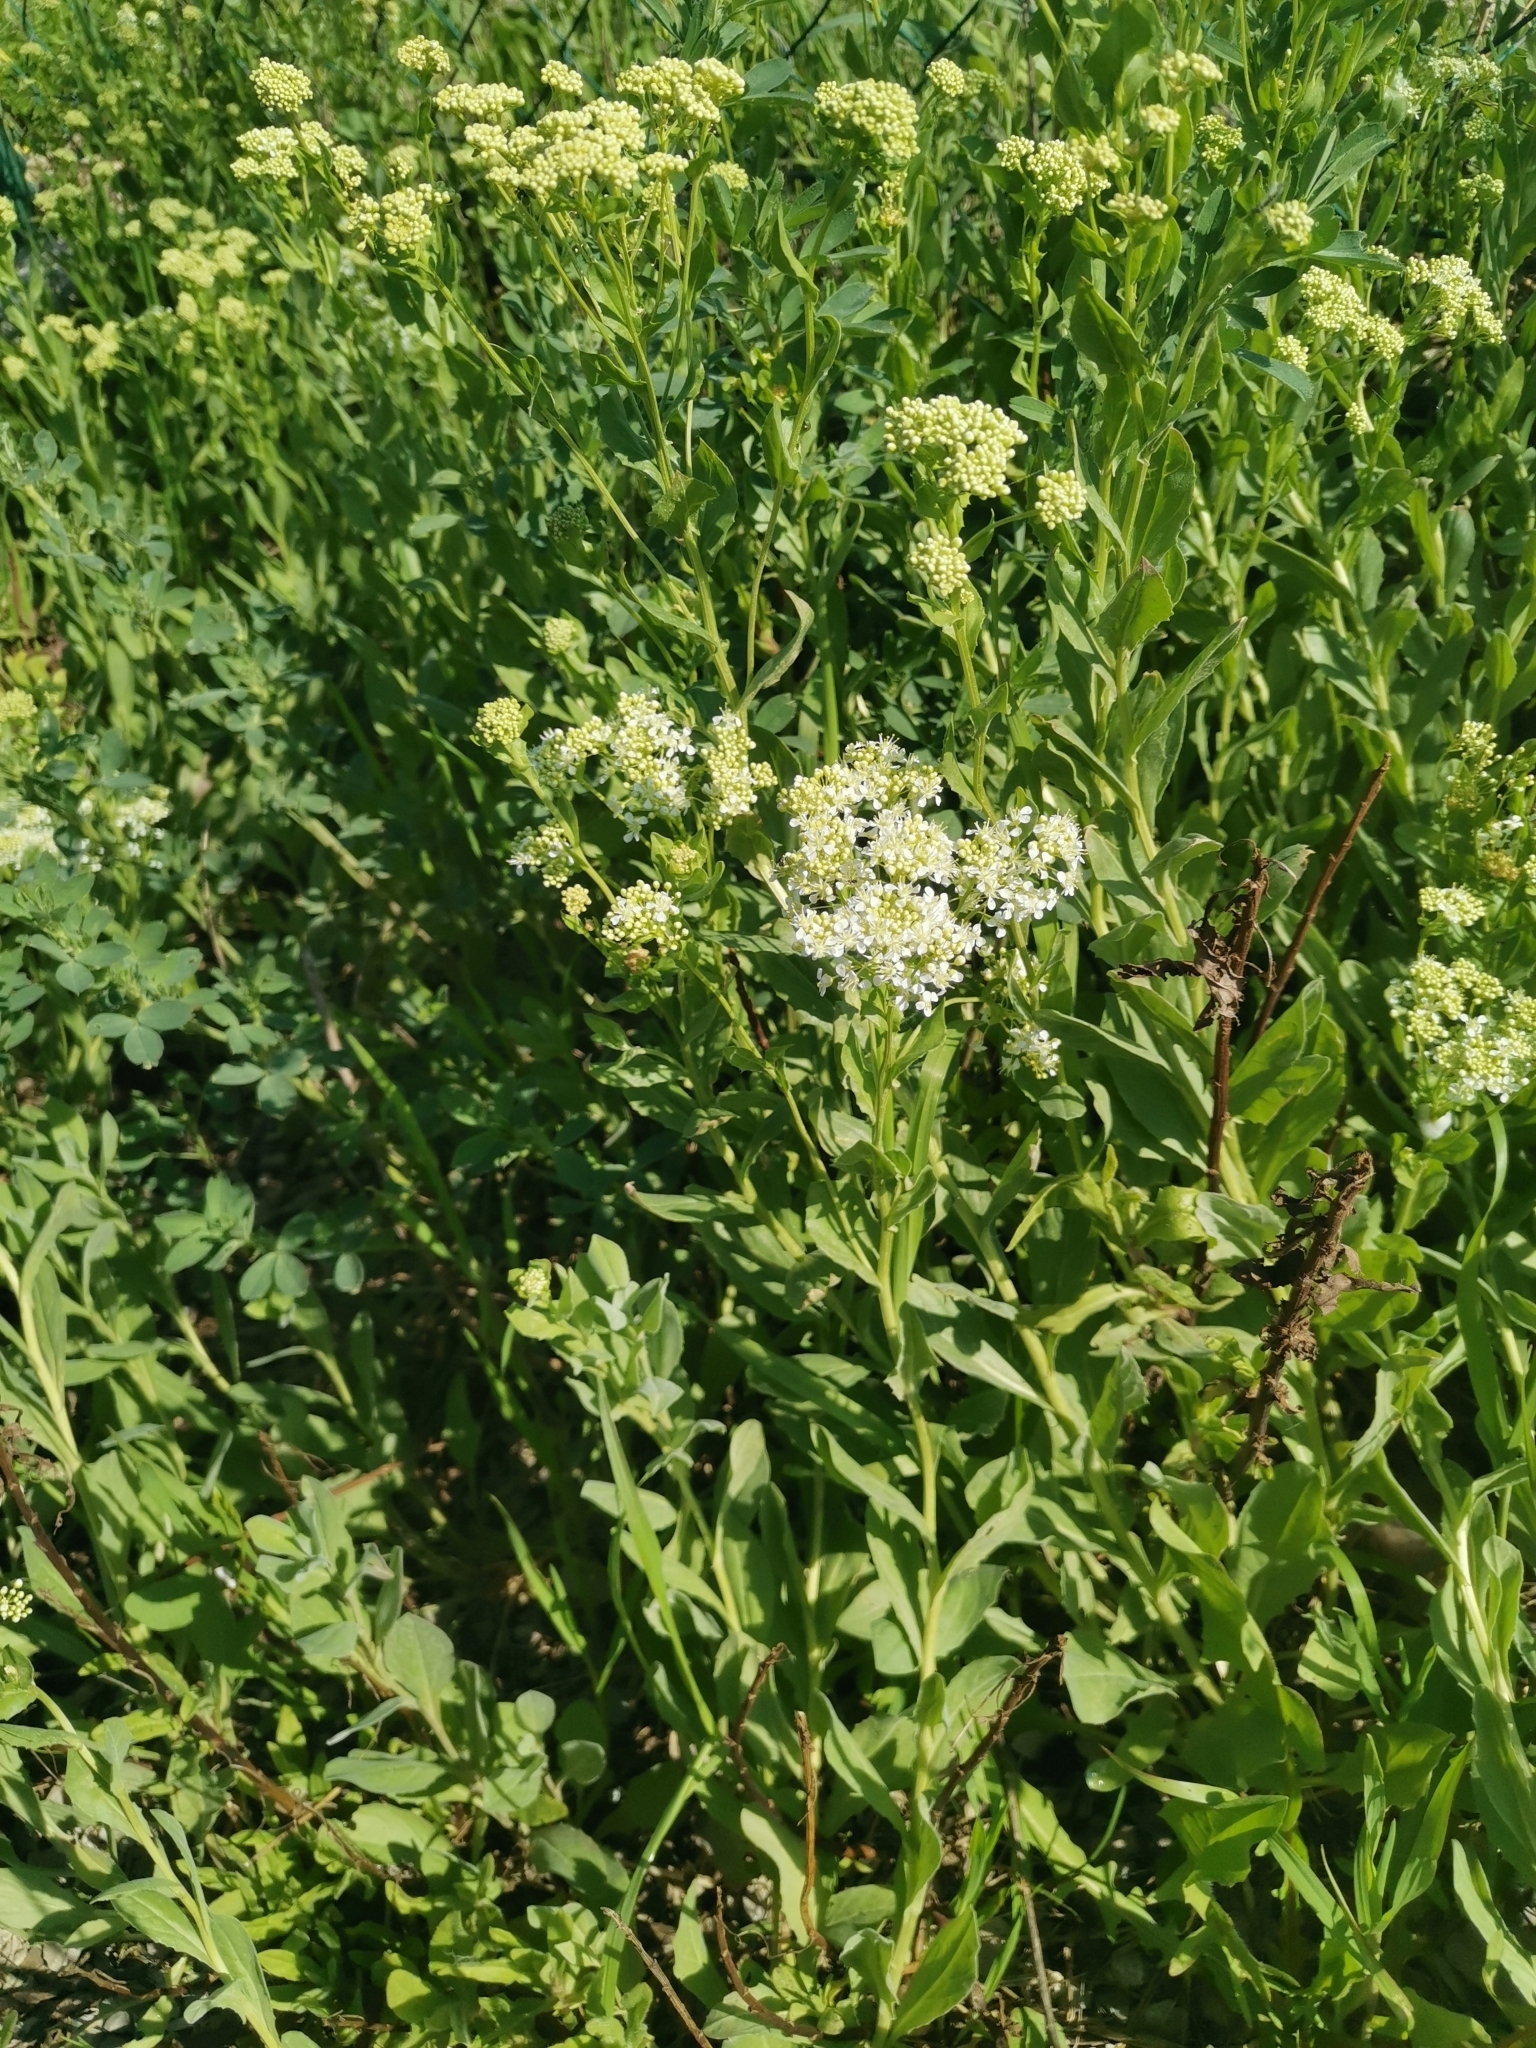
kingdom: Plantae
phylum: Tracheophyta
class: Magnoliopsida
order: Brassicales
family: Brassicaceae
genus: Lepidium
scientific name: Lepidium draba
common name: Hoary cress
